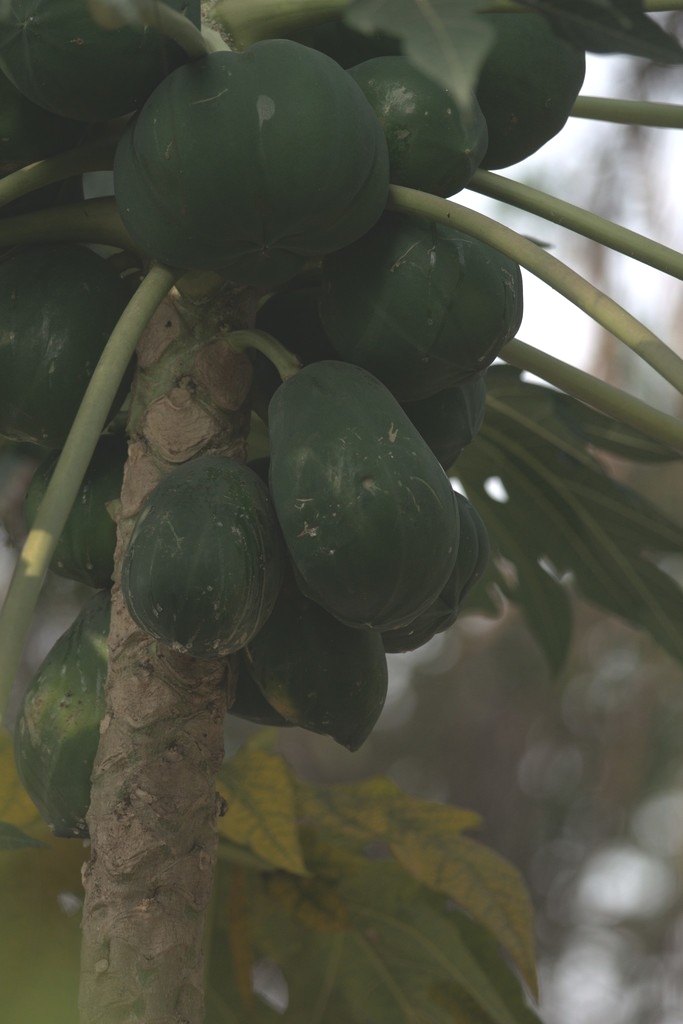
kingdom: Plantae
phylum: Tracheophyta
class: Magnoliopsida
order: Brassicales
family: Caricaceae
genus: Carica
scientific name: Carica papaya
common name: Papaya
